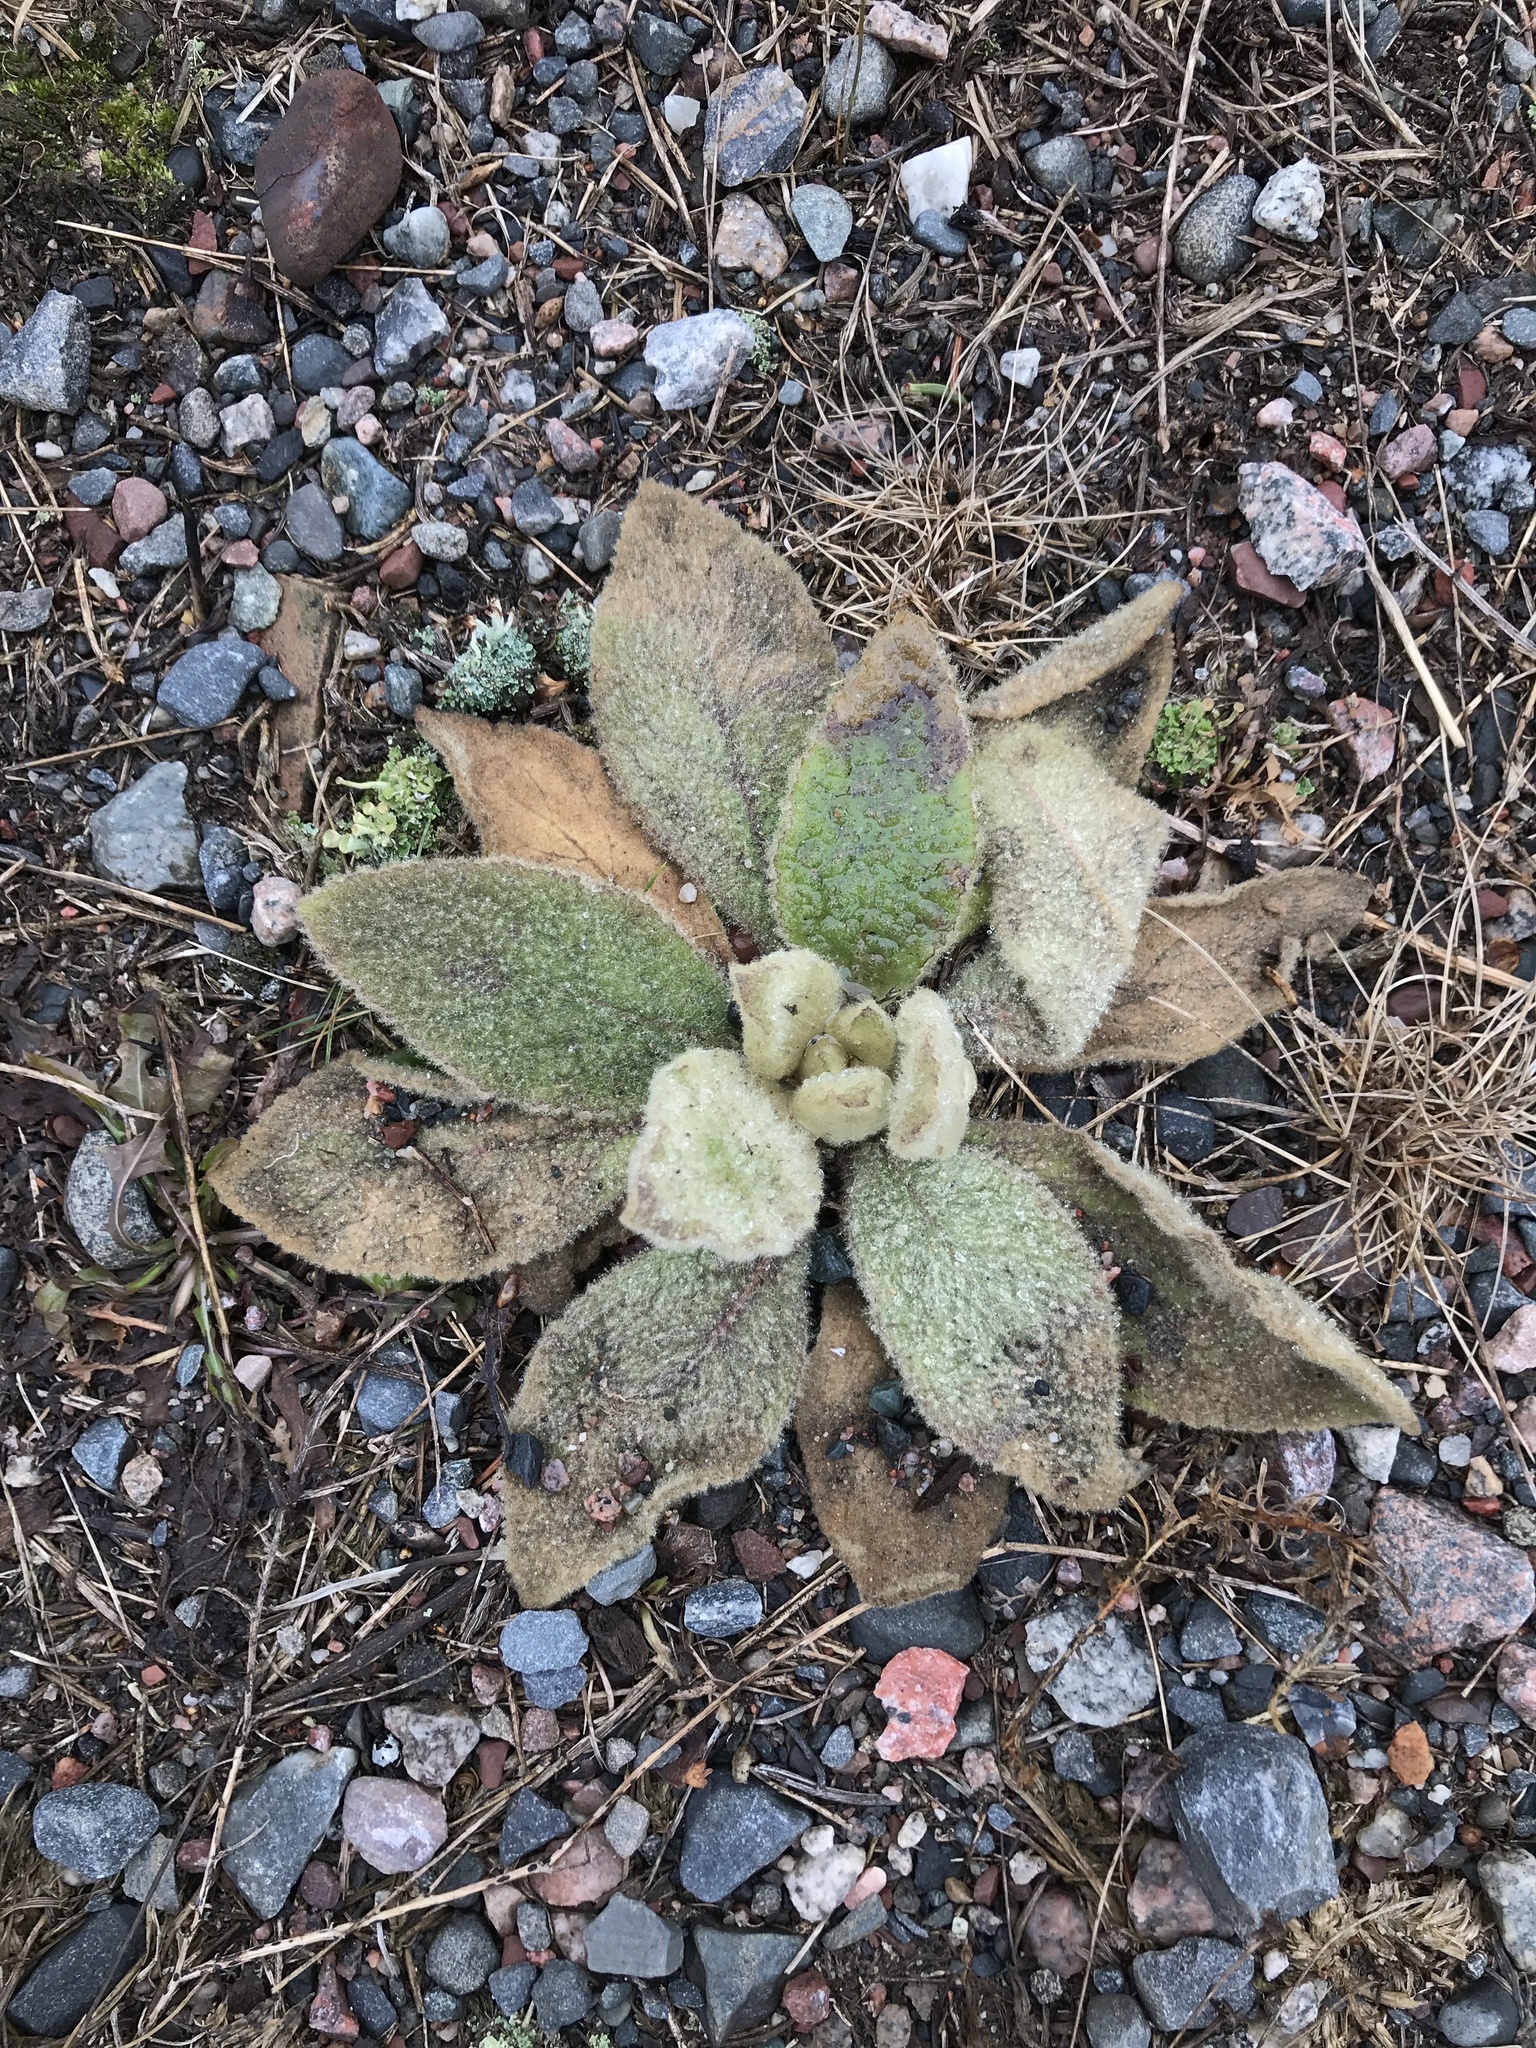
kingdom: Plantae
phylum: Tracheophyta
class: Magnoliopsida
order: Lamiales
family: Scrophulariaceae
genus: Verbascum
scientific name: Verbascum thapsus
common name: Common mullein
